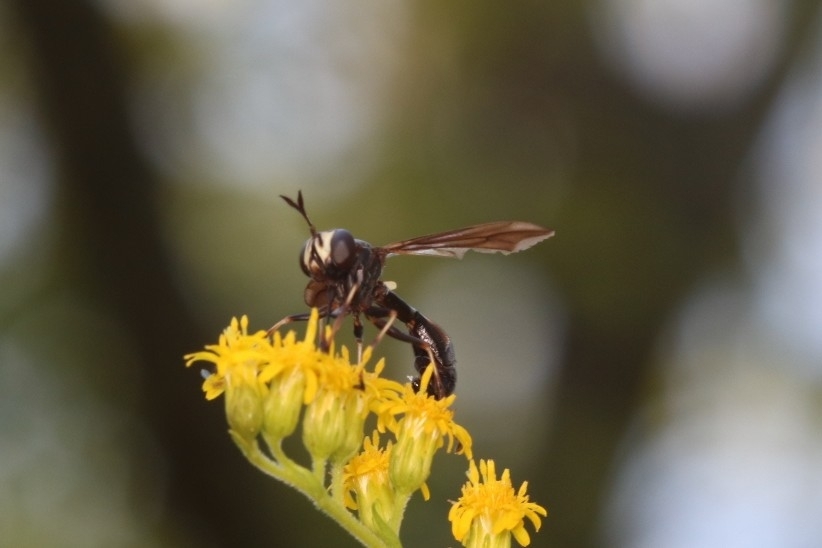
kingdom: Animalia
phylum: Arthropoda
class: Insecta
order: Diptera
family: Conopidae
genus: Physocephala
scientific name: Physocephala tibialis
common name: Common eastern physocephala
